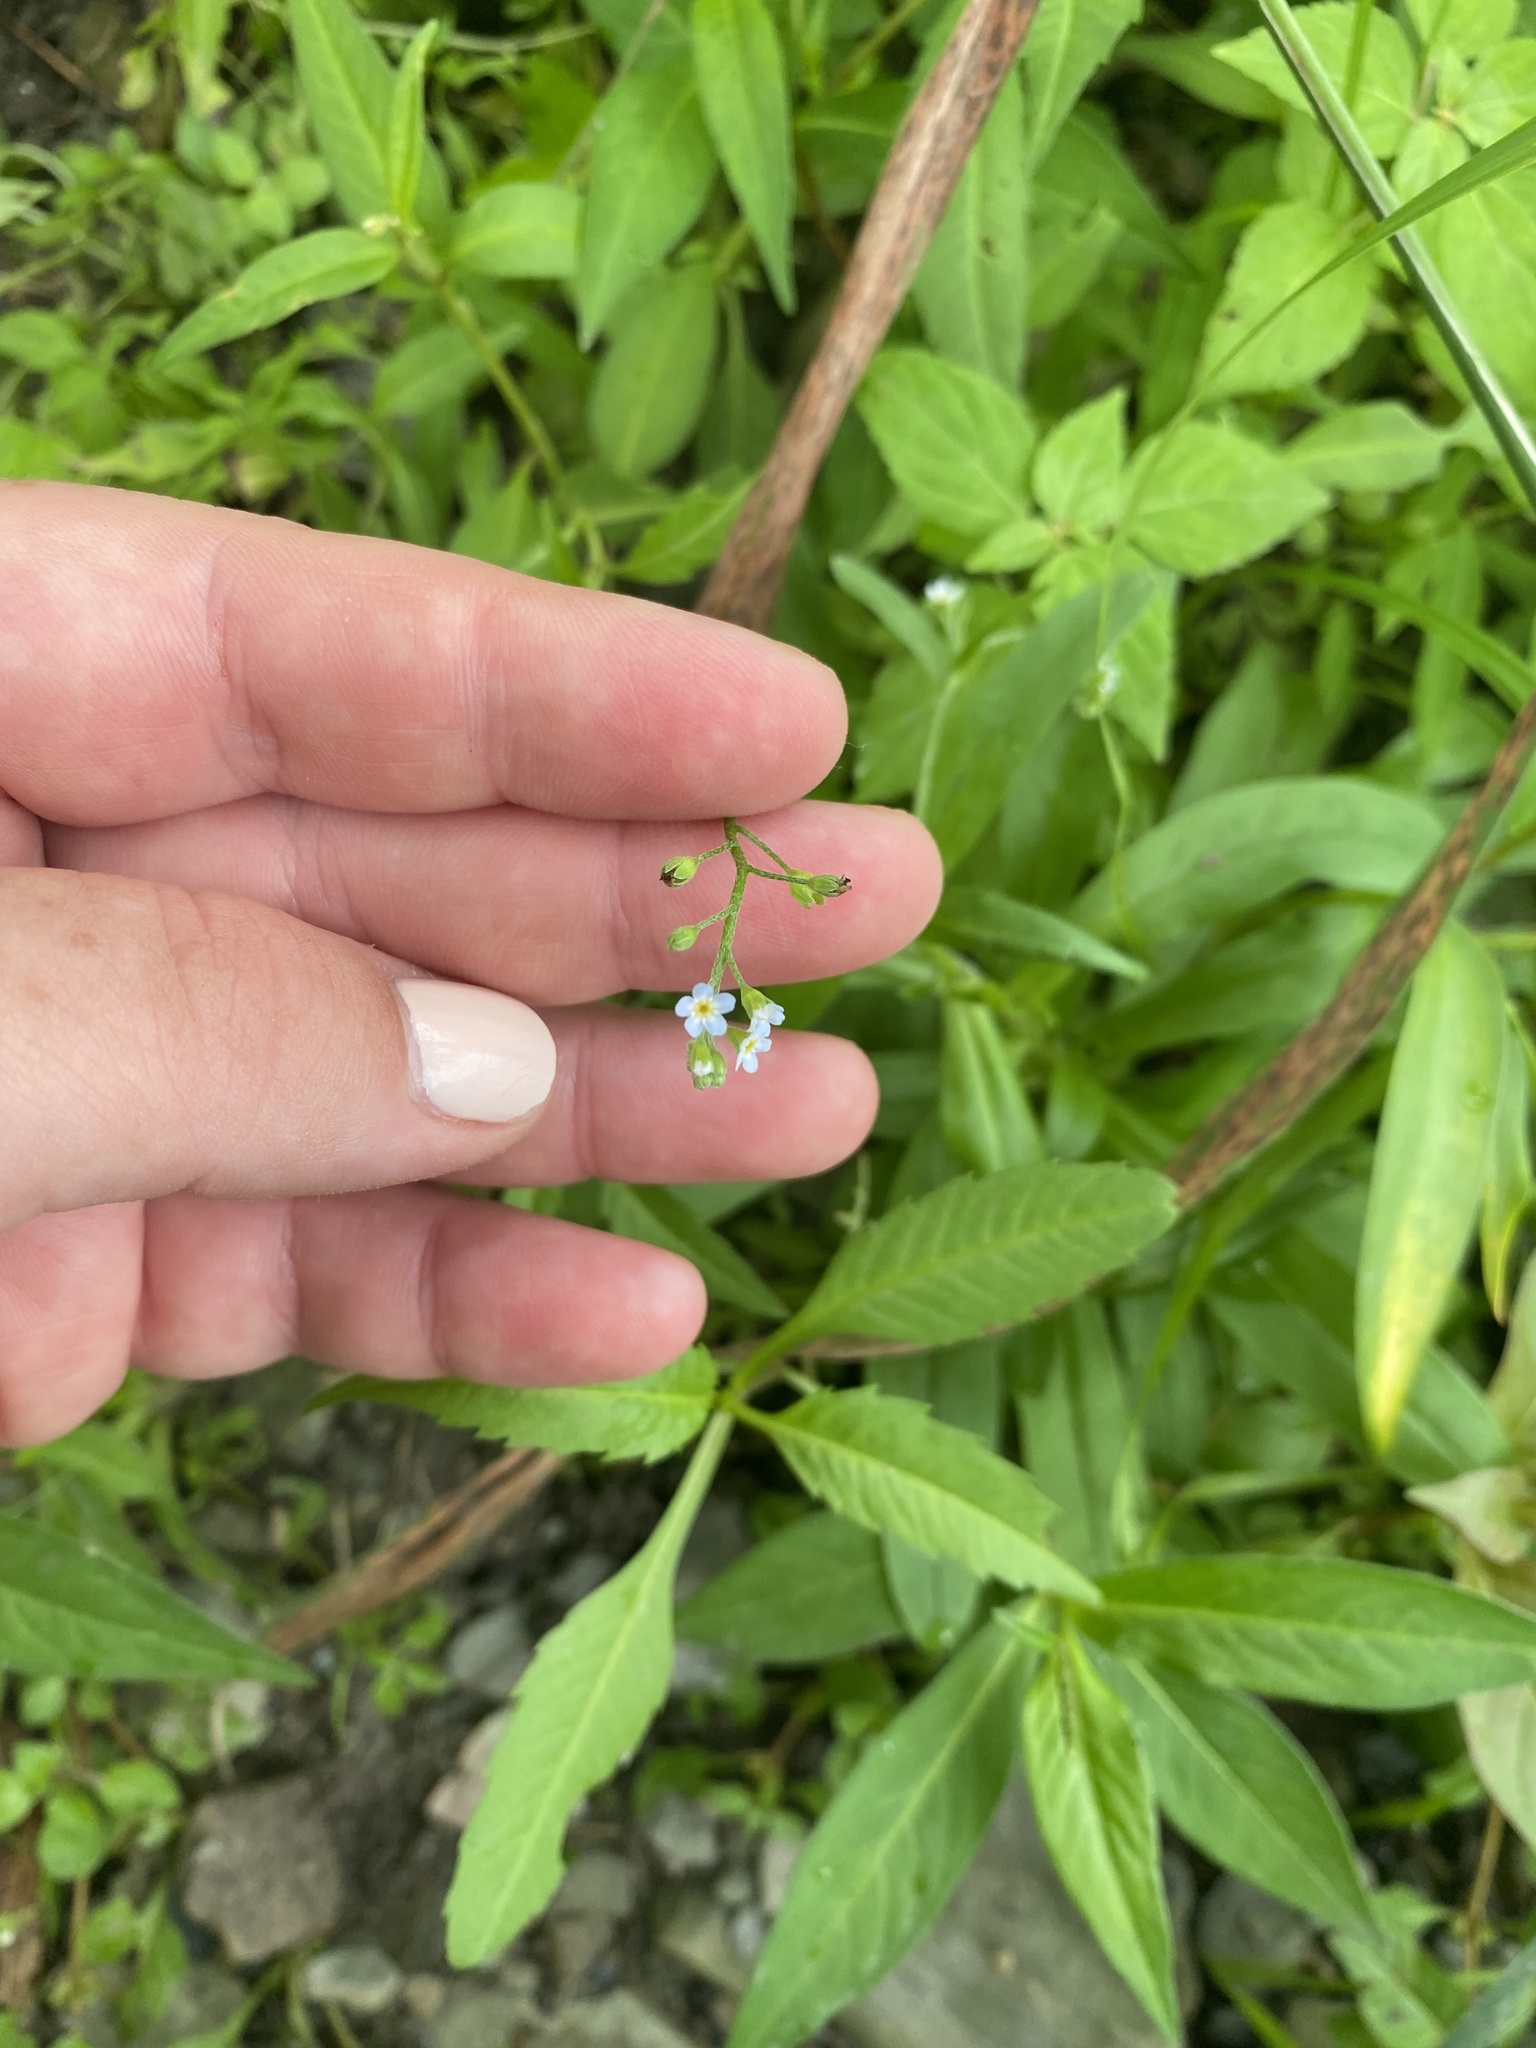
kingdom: Plantae
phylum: Tracheophyta
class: Magnoliopsida
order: Boraginales
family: Boraginaceae
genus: Myosotis
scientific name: Myosotis laxa
